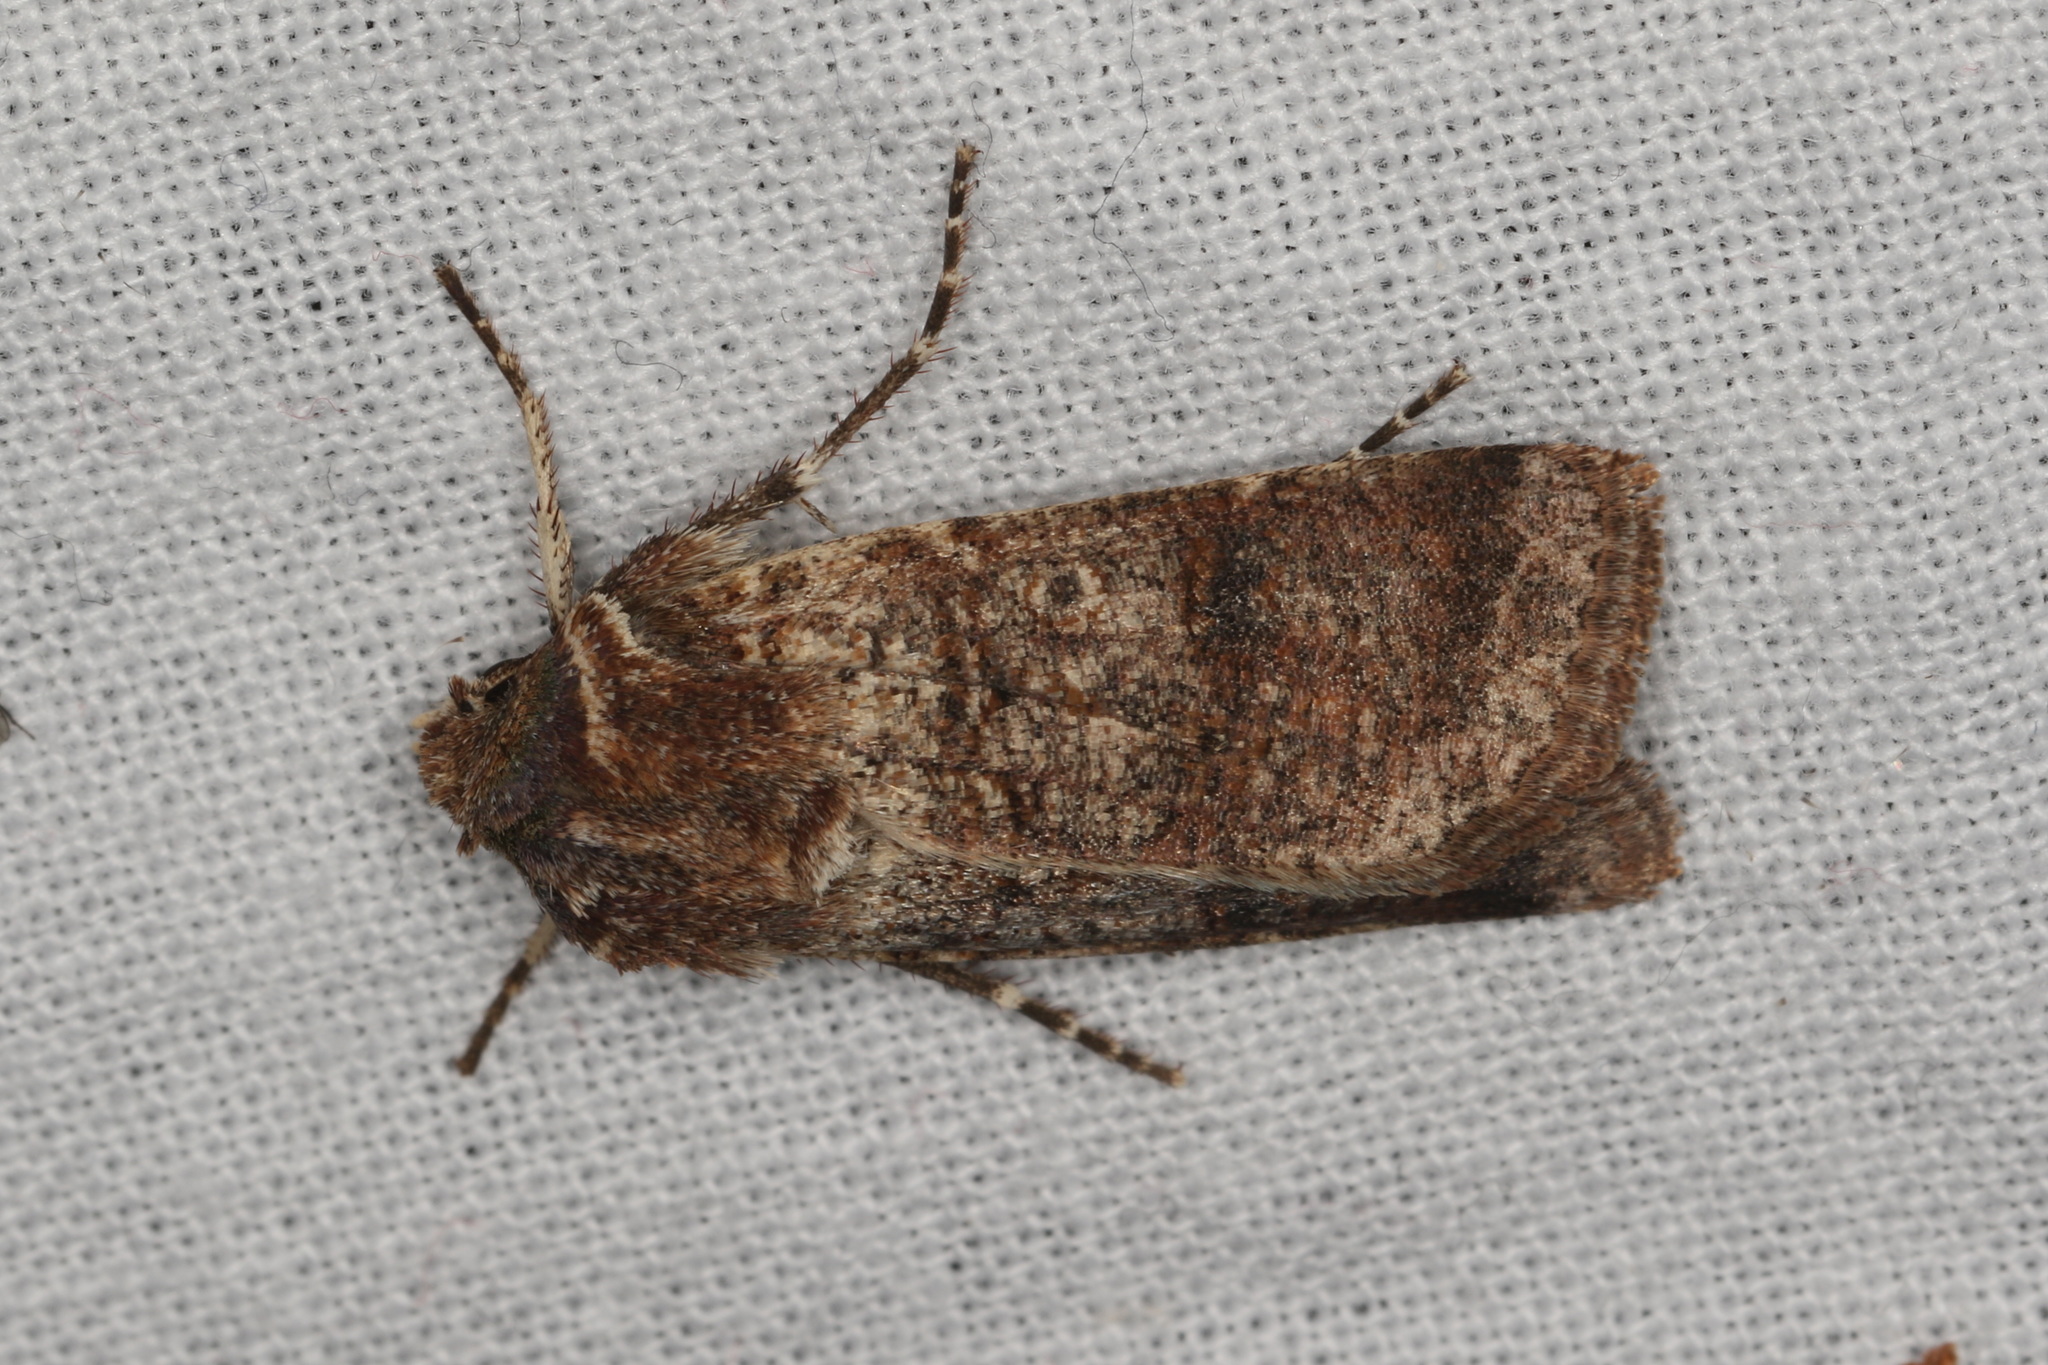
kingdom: Animalia
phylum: Arthropoda
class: Insecta
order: Lepidoptera
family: Noctuidae
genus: Agrotis
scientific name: Agrotis porphyricollis
